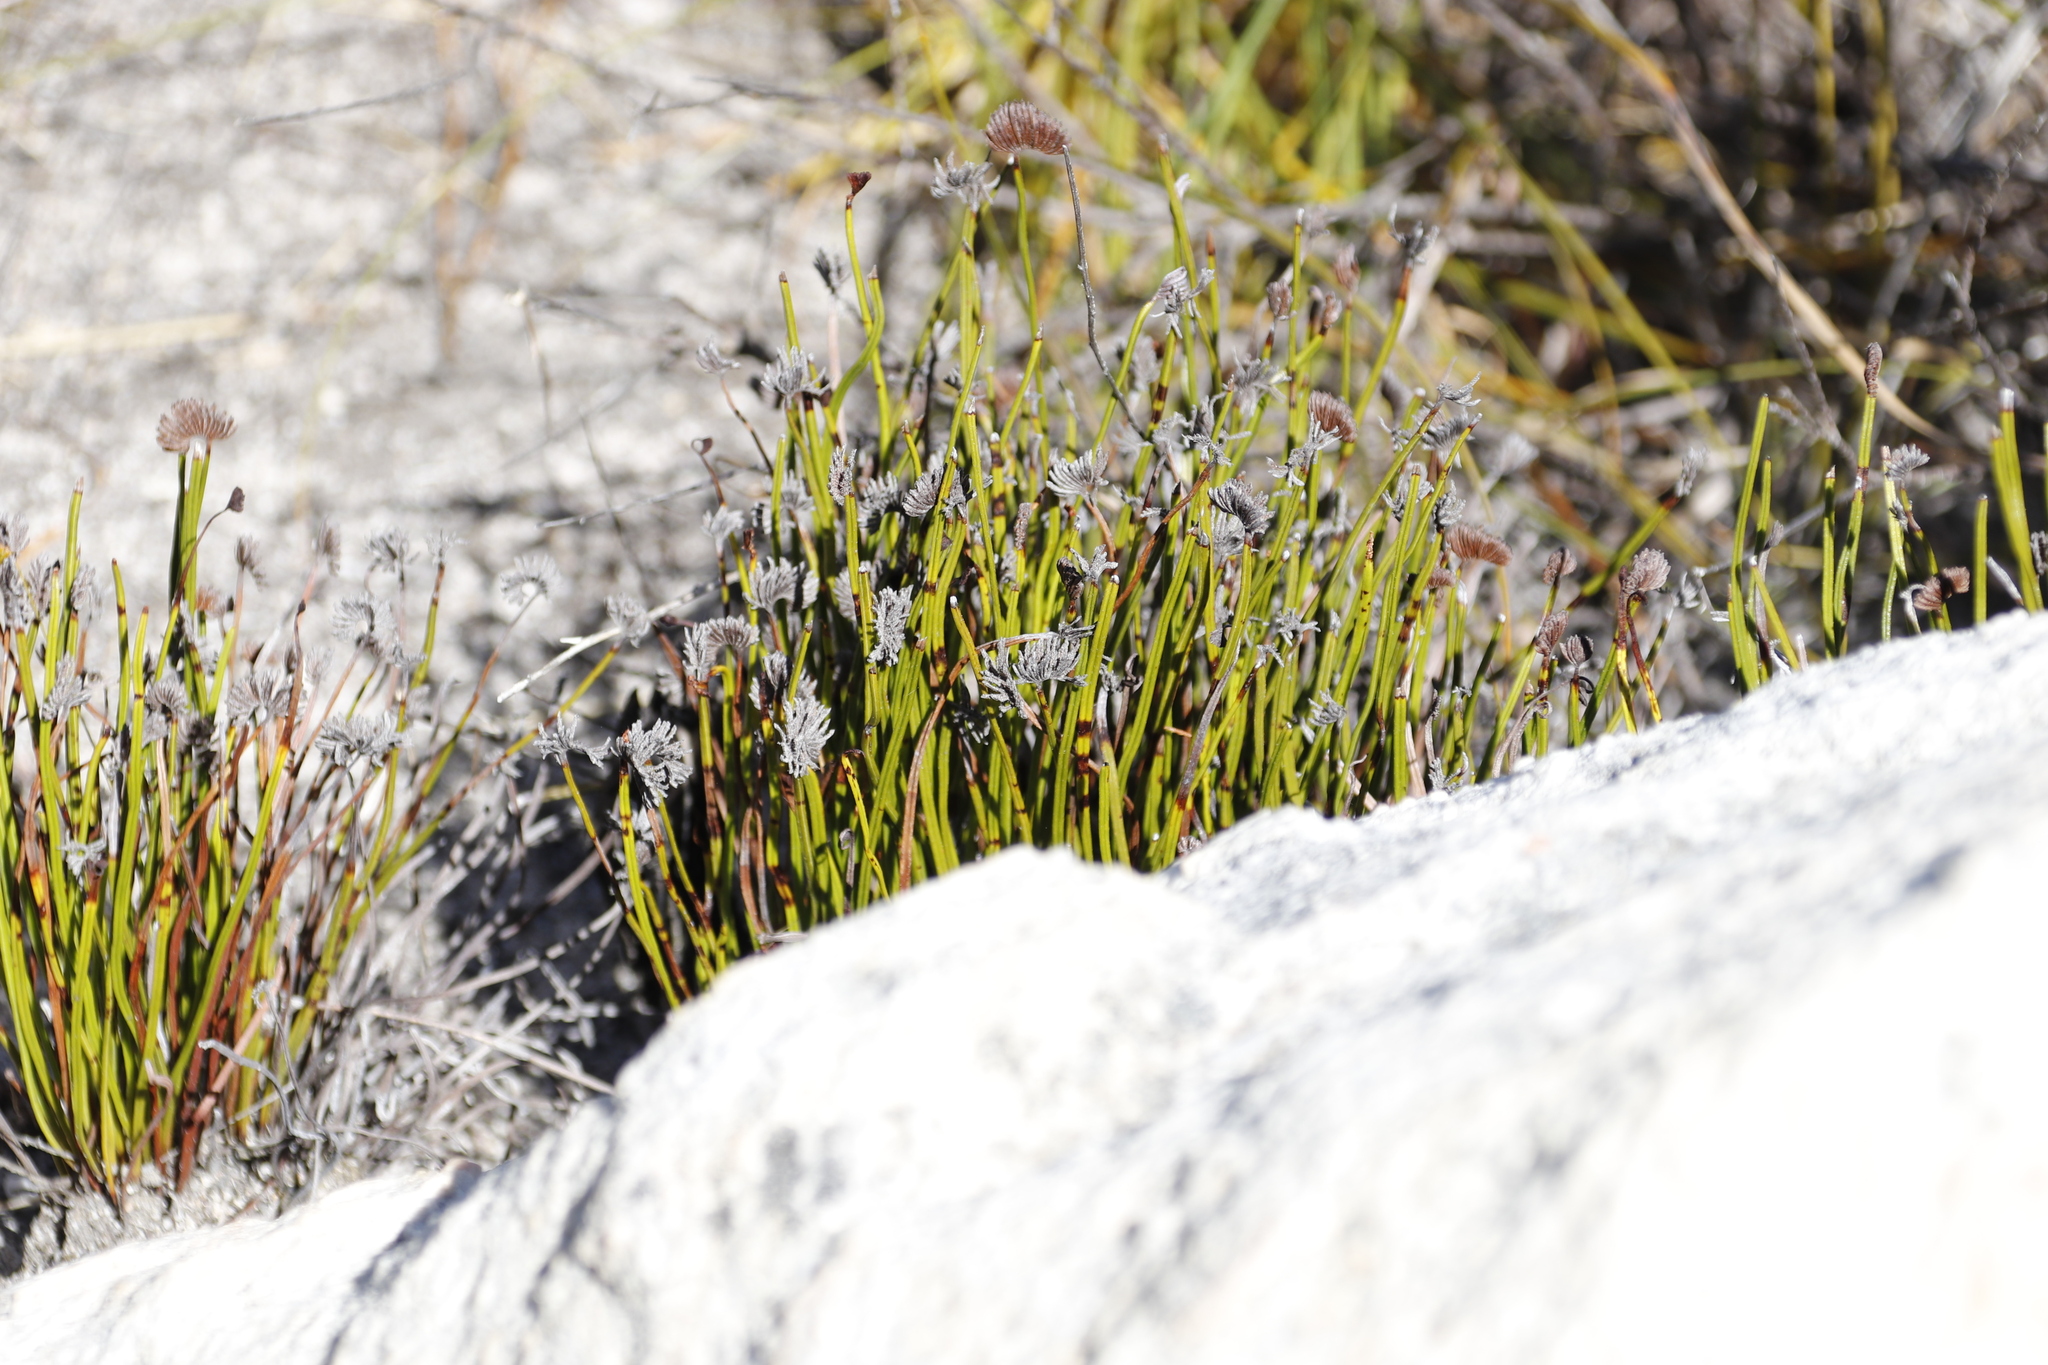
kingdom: Plantae
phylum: Tracheophyta
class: Polypodiopsida
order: Schizaeales
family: Schizaeaceae
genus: Schizaea
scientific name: Schizaea pectinata
